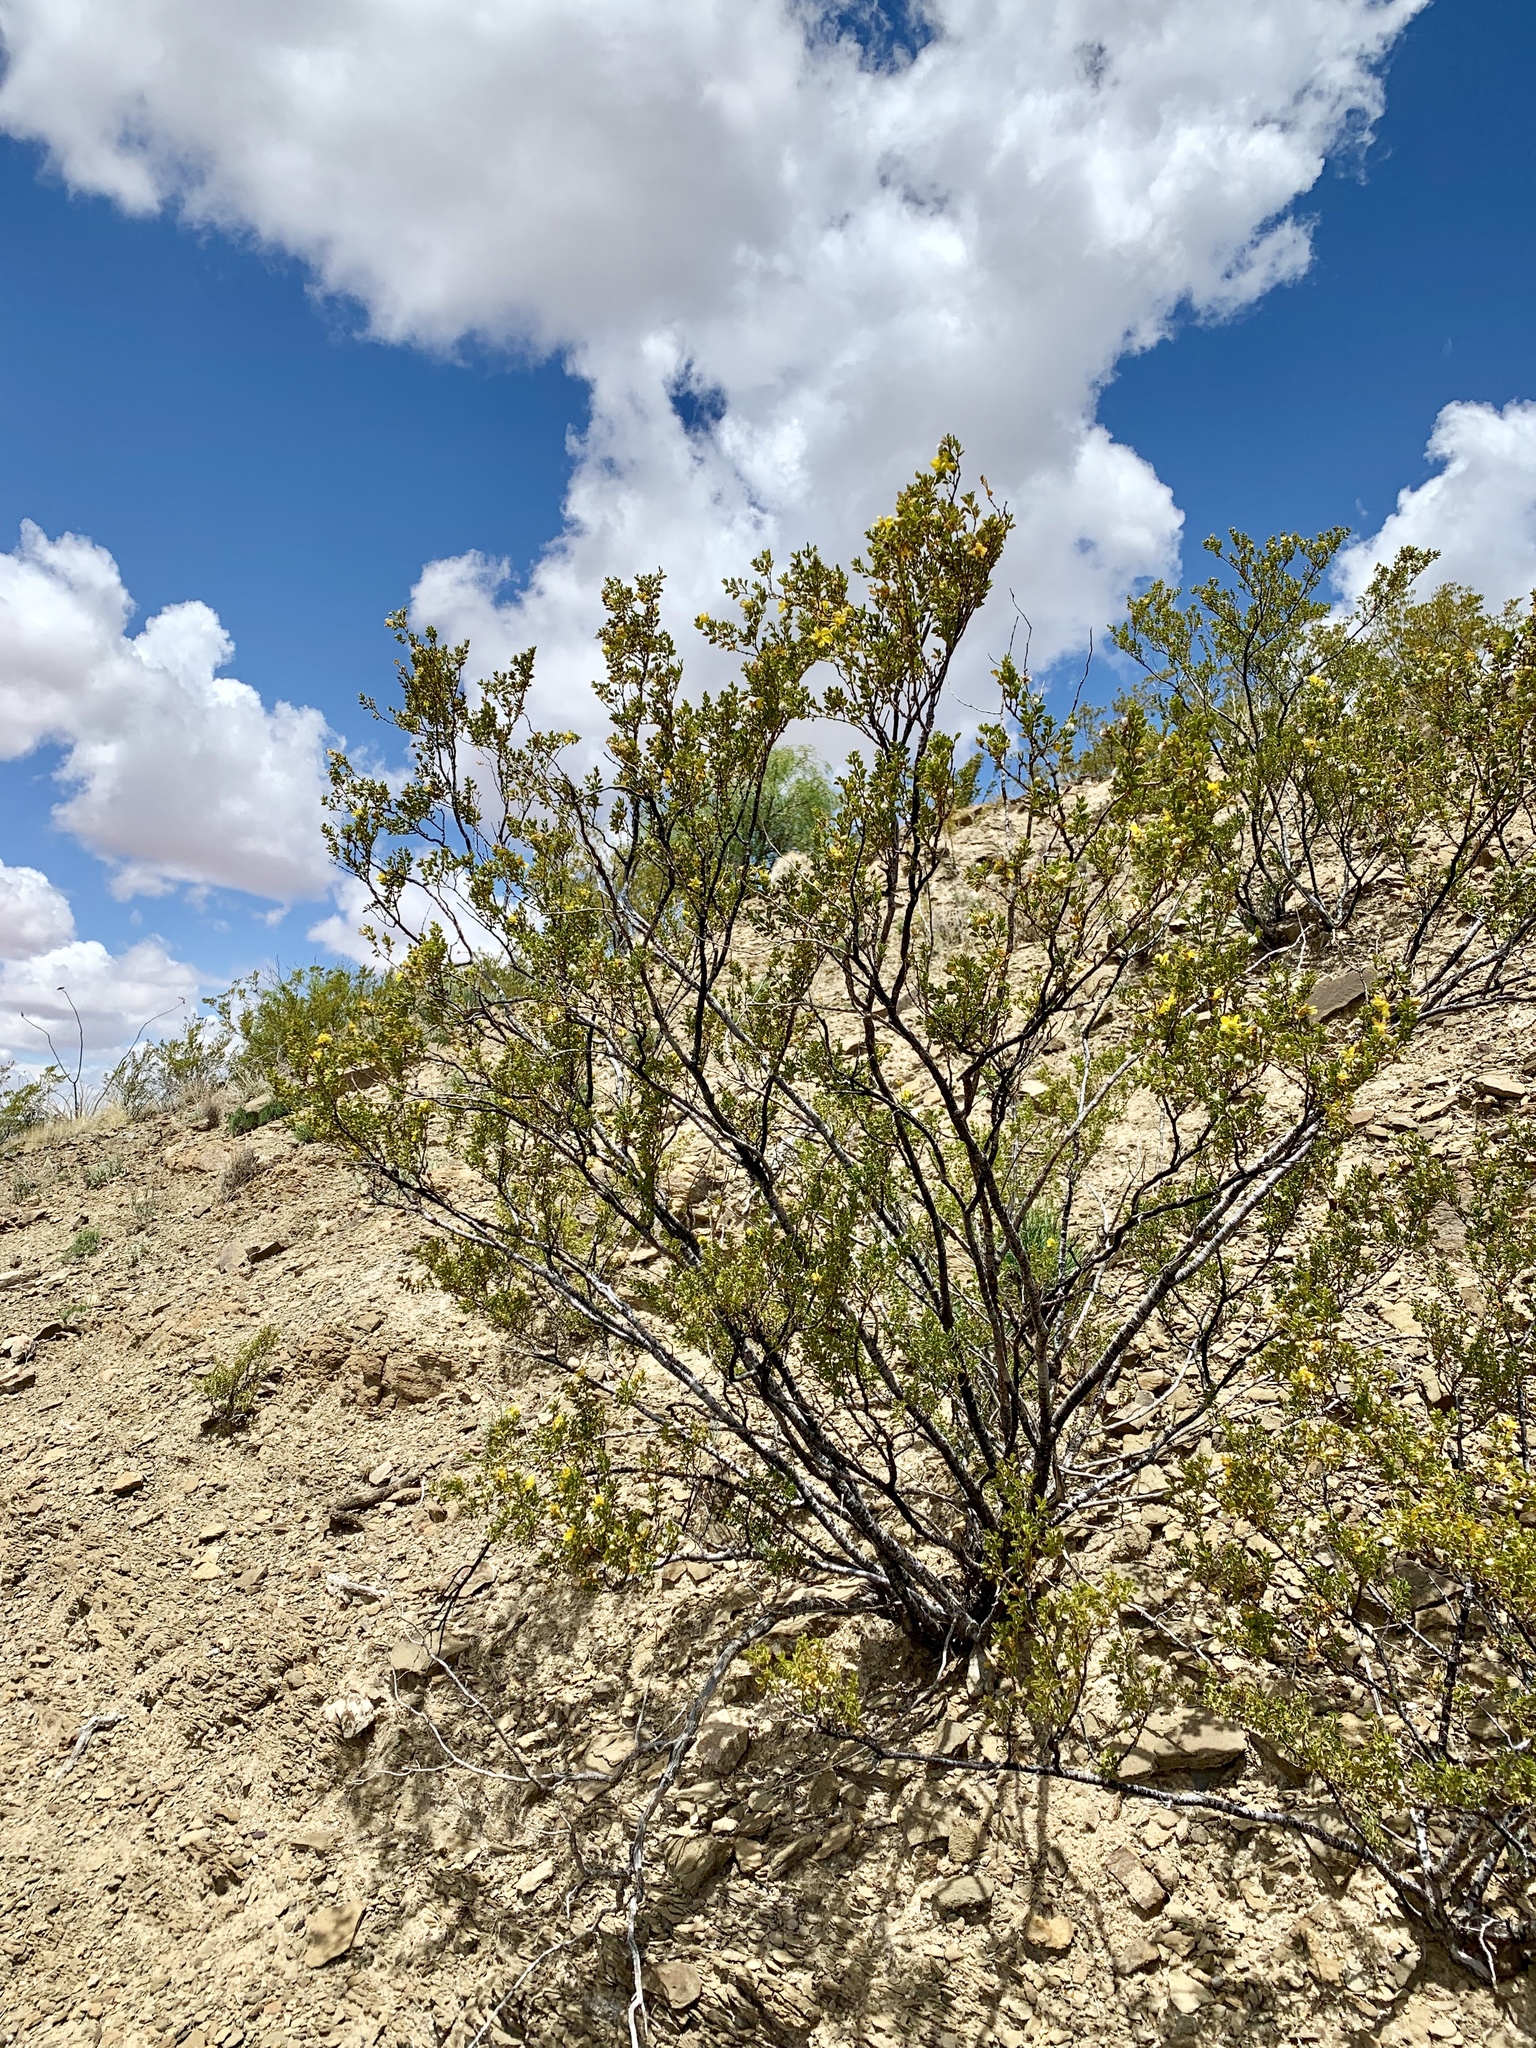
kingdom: Plantae
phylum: Tracheophyta
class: Magnoliopsida
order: Zygophyllales
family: Zygophyllaceae
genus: Larrea
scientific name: Larrea tridentata
